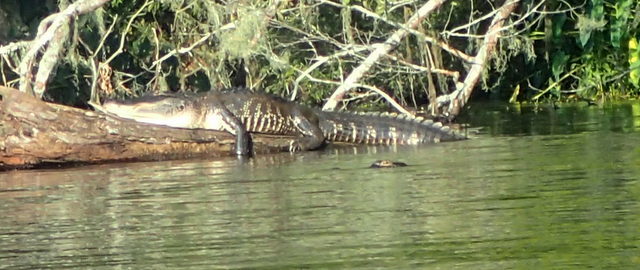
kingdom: Animalia
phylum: Chordata
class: Crocodylia
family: Alligatoridae
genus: Alligator
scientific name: Alligator mississippiensis
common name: American alligator
